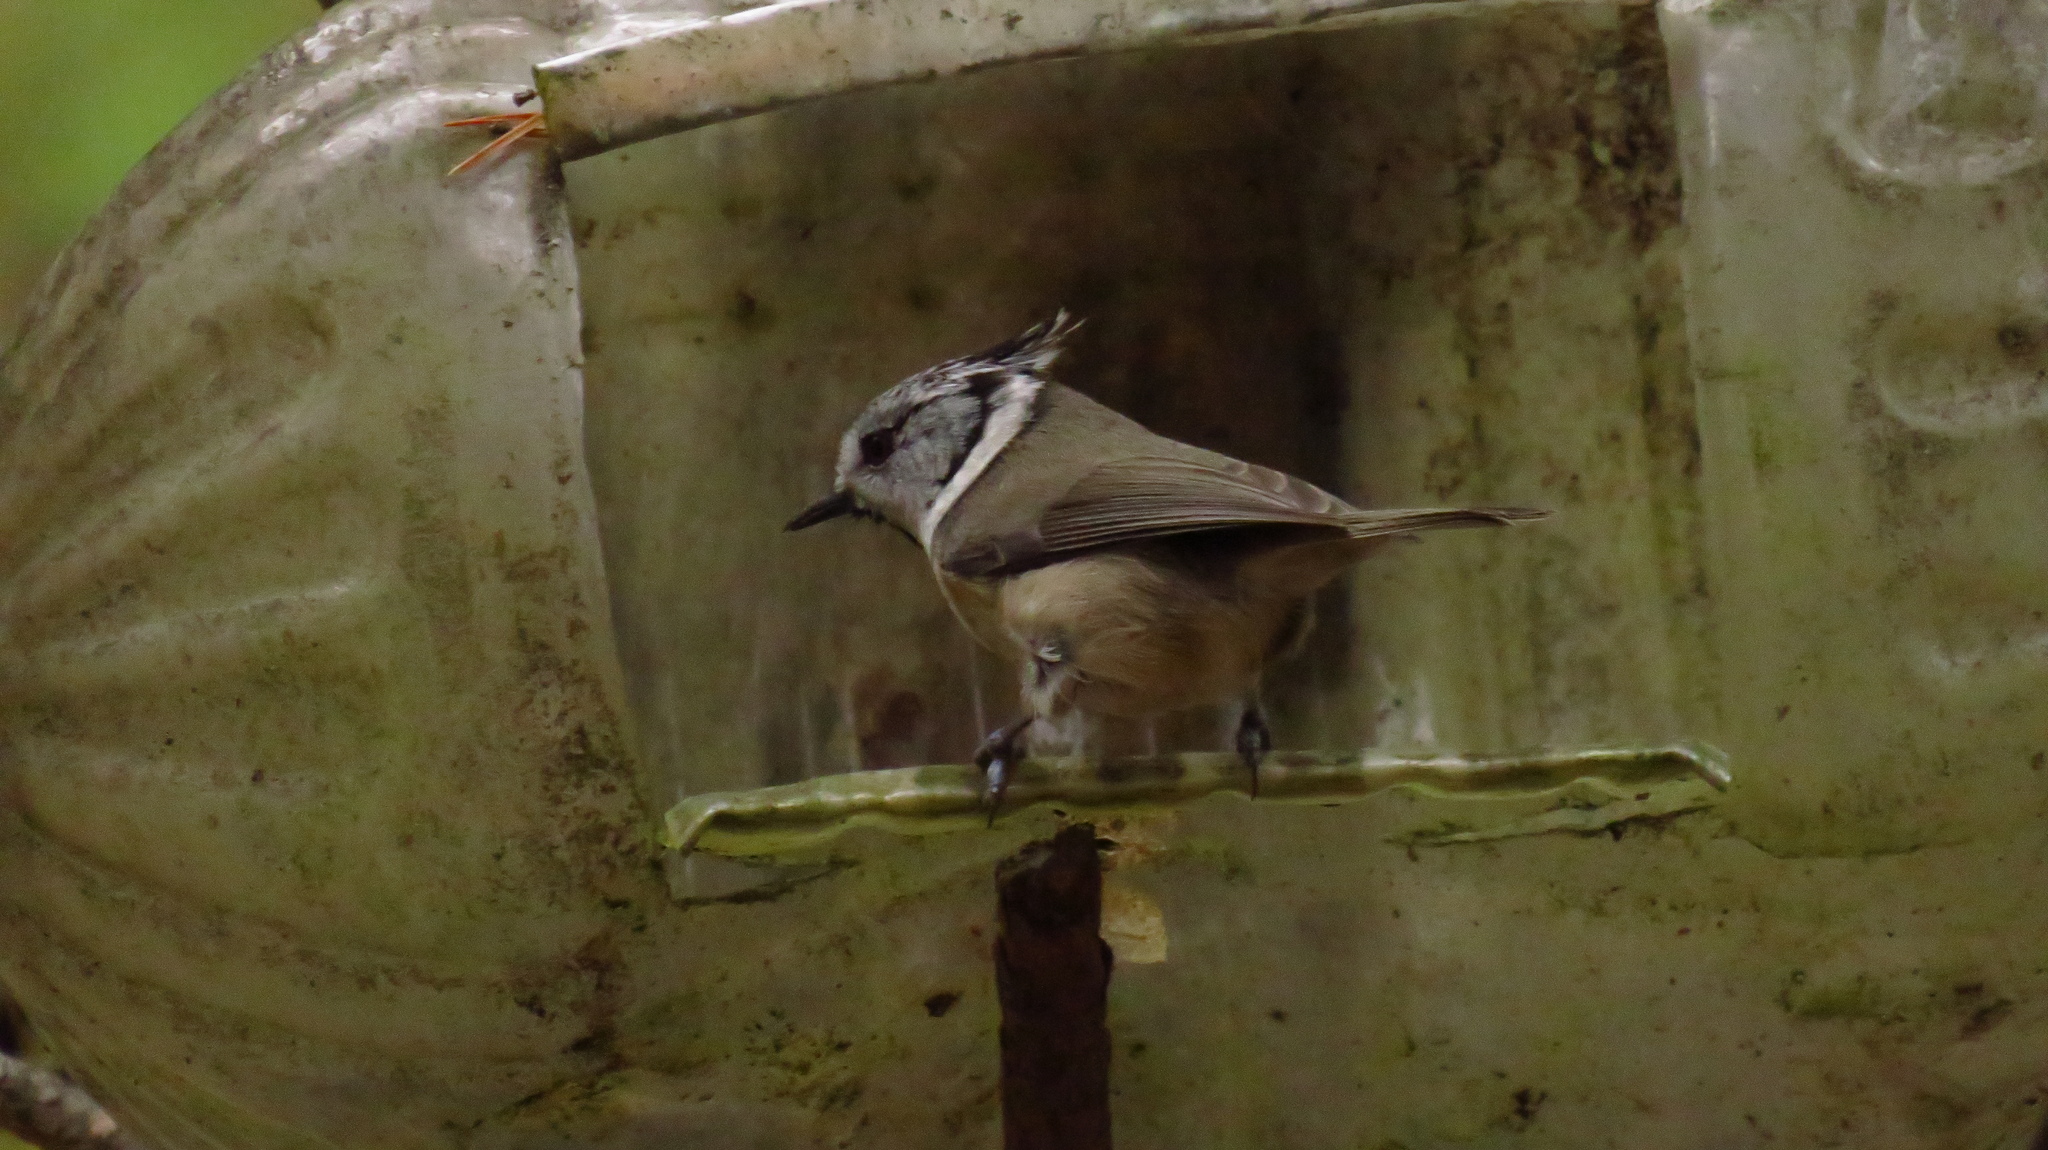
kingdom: Animalia
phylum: Chordata
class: Aves
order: Passeriformes
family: Paridae
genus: Lophophanes
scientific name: Lophophanes cristatus
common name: European crested tit
